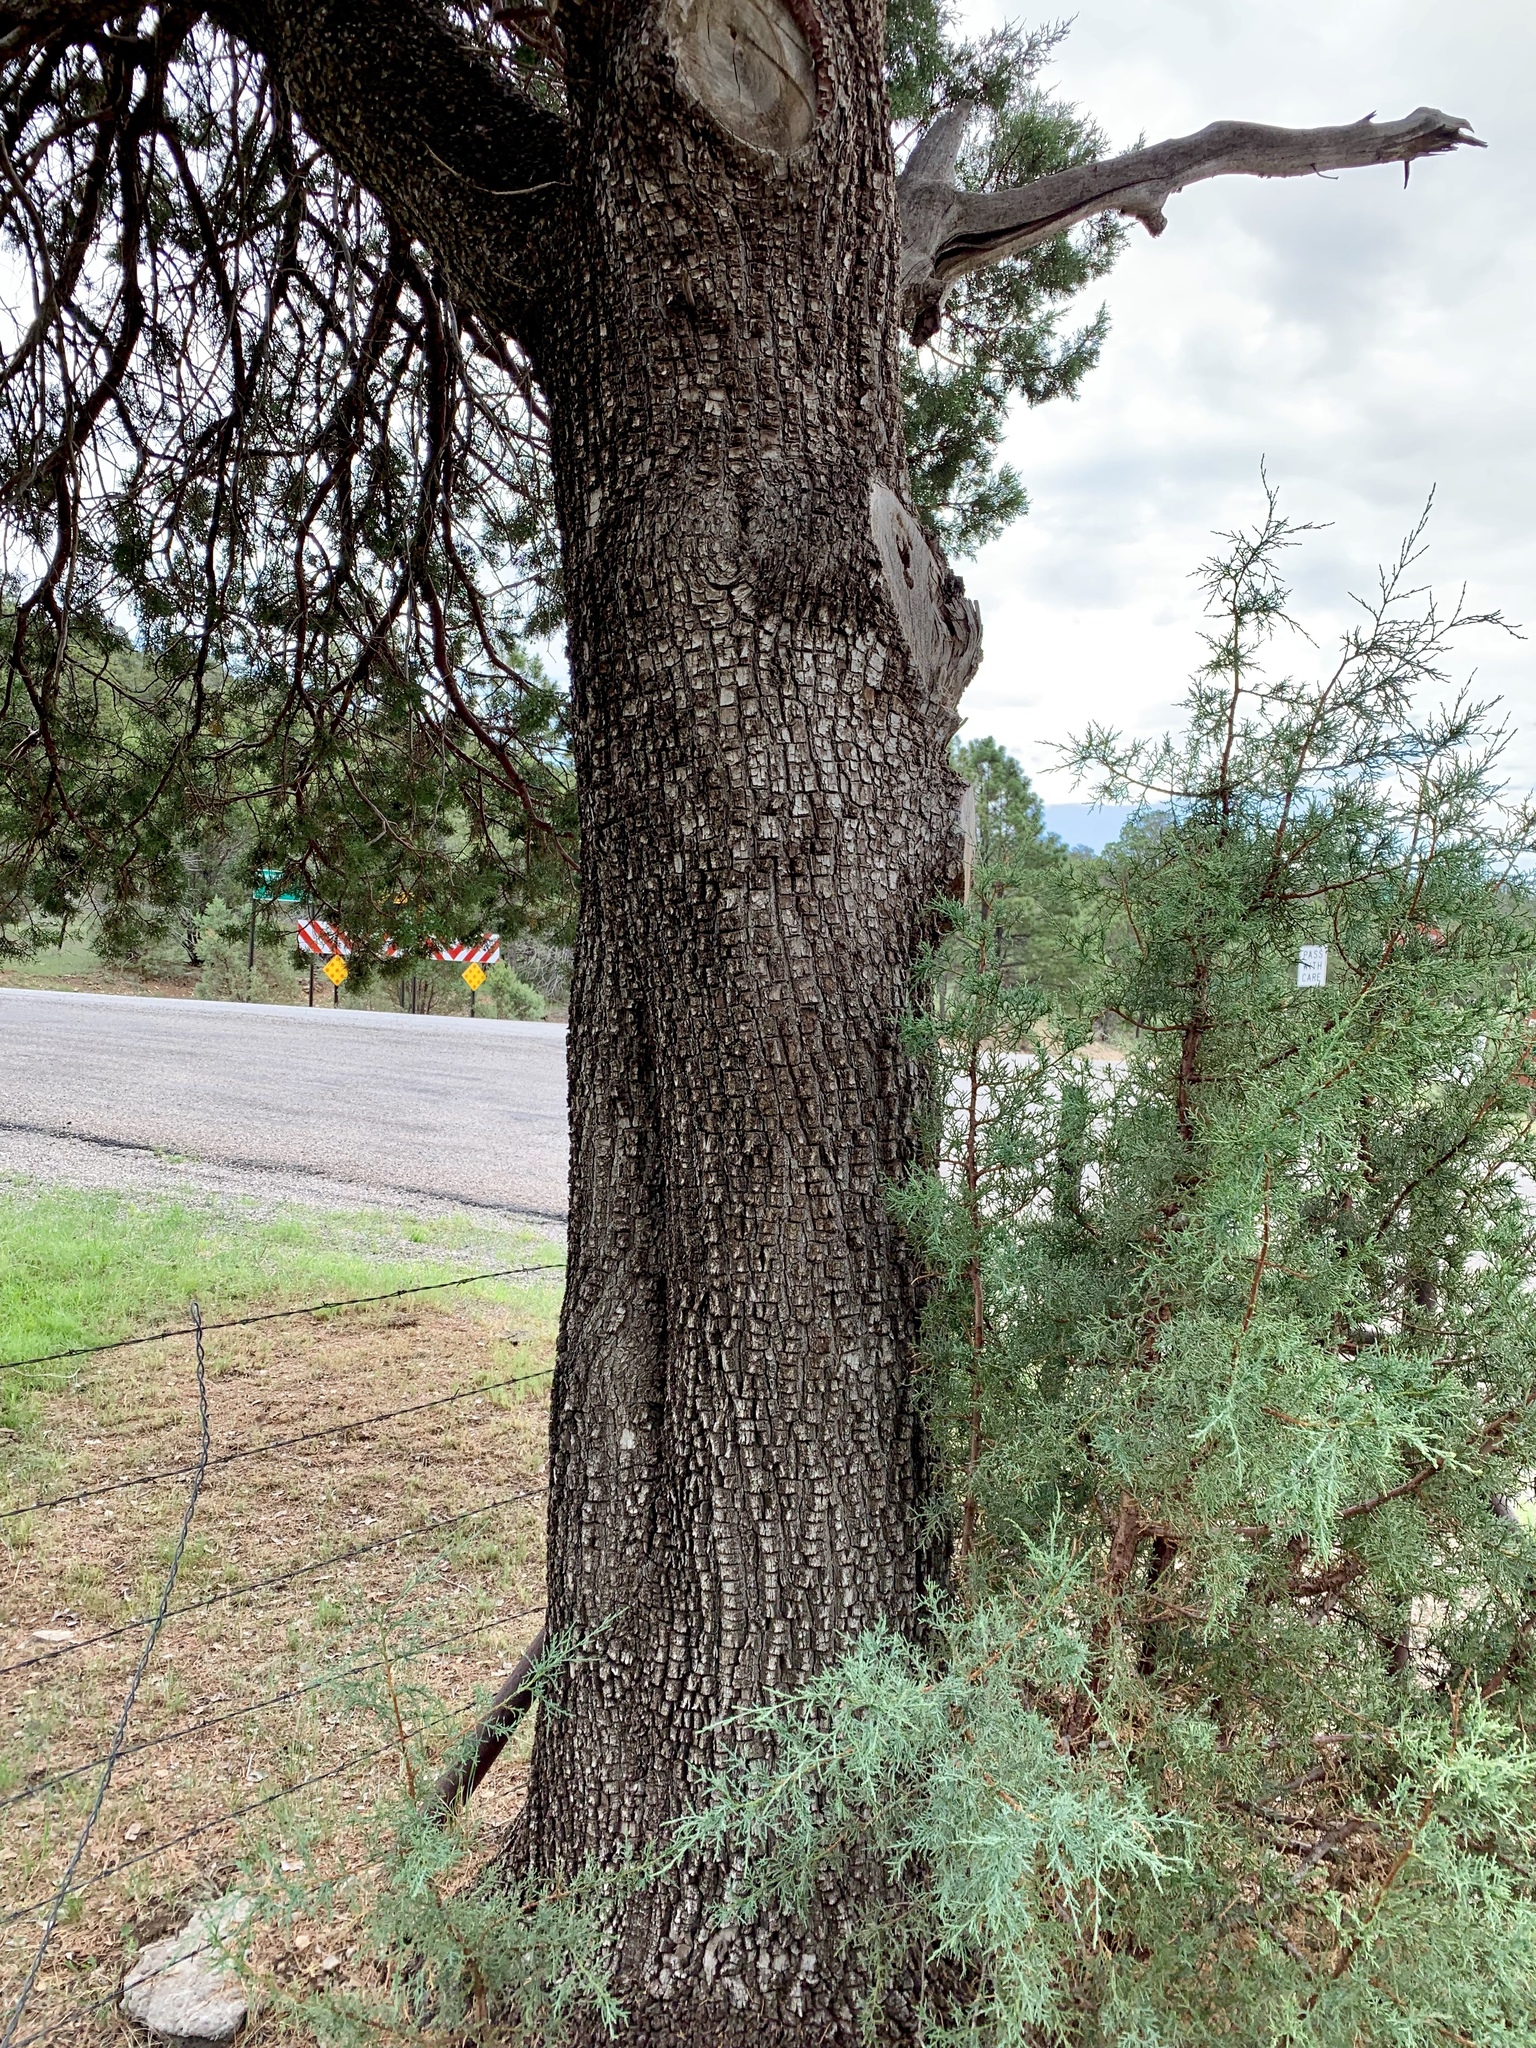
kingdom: Plantae
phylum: Tracheophyta
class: Pinopsida
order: Pinales
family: Cupressaceae
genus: Juniperus
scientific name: Juniperus deppeana
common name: Alligator juniper
